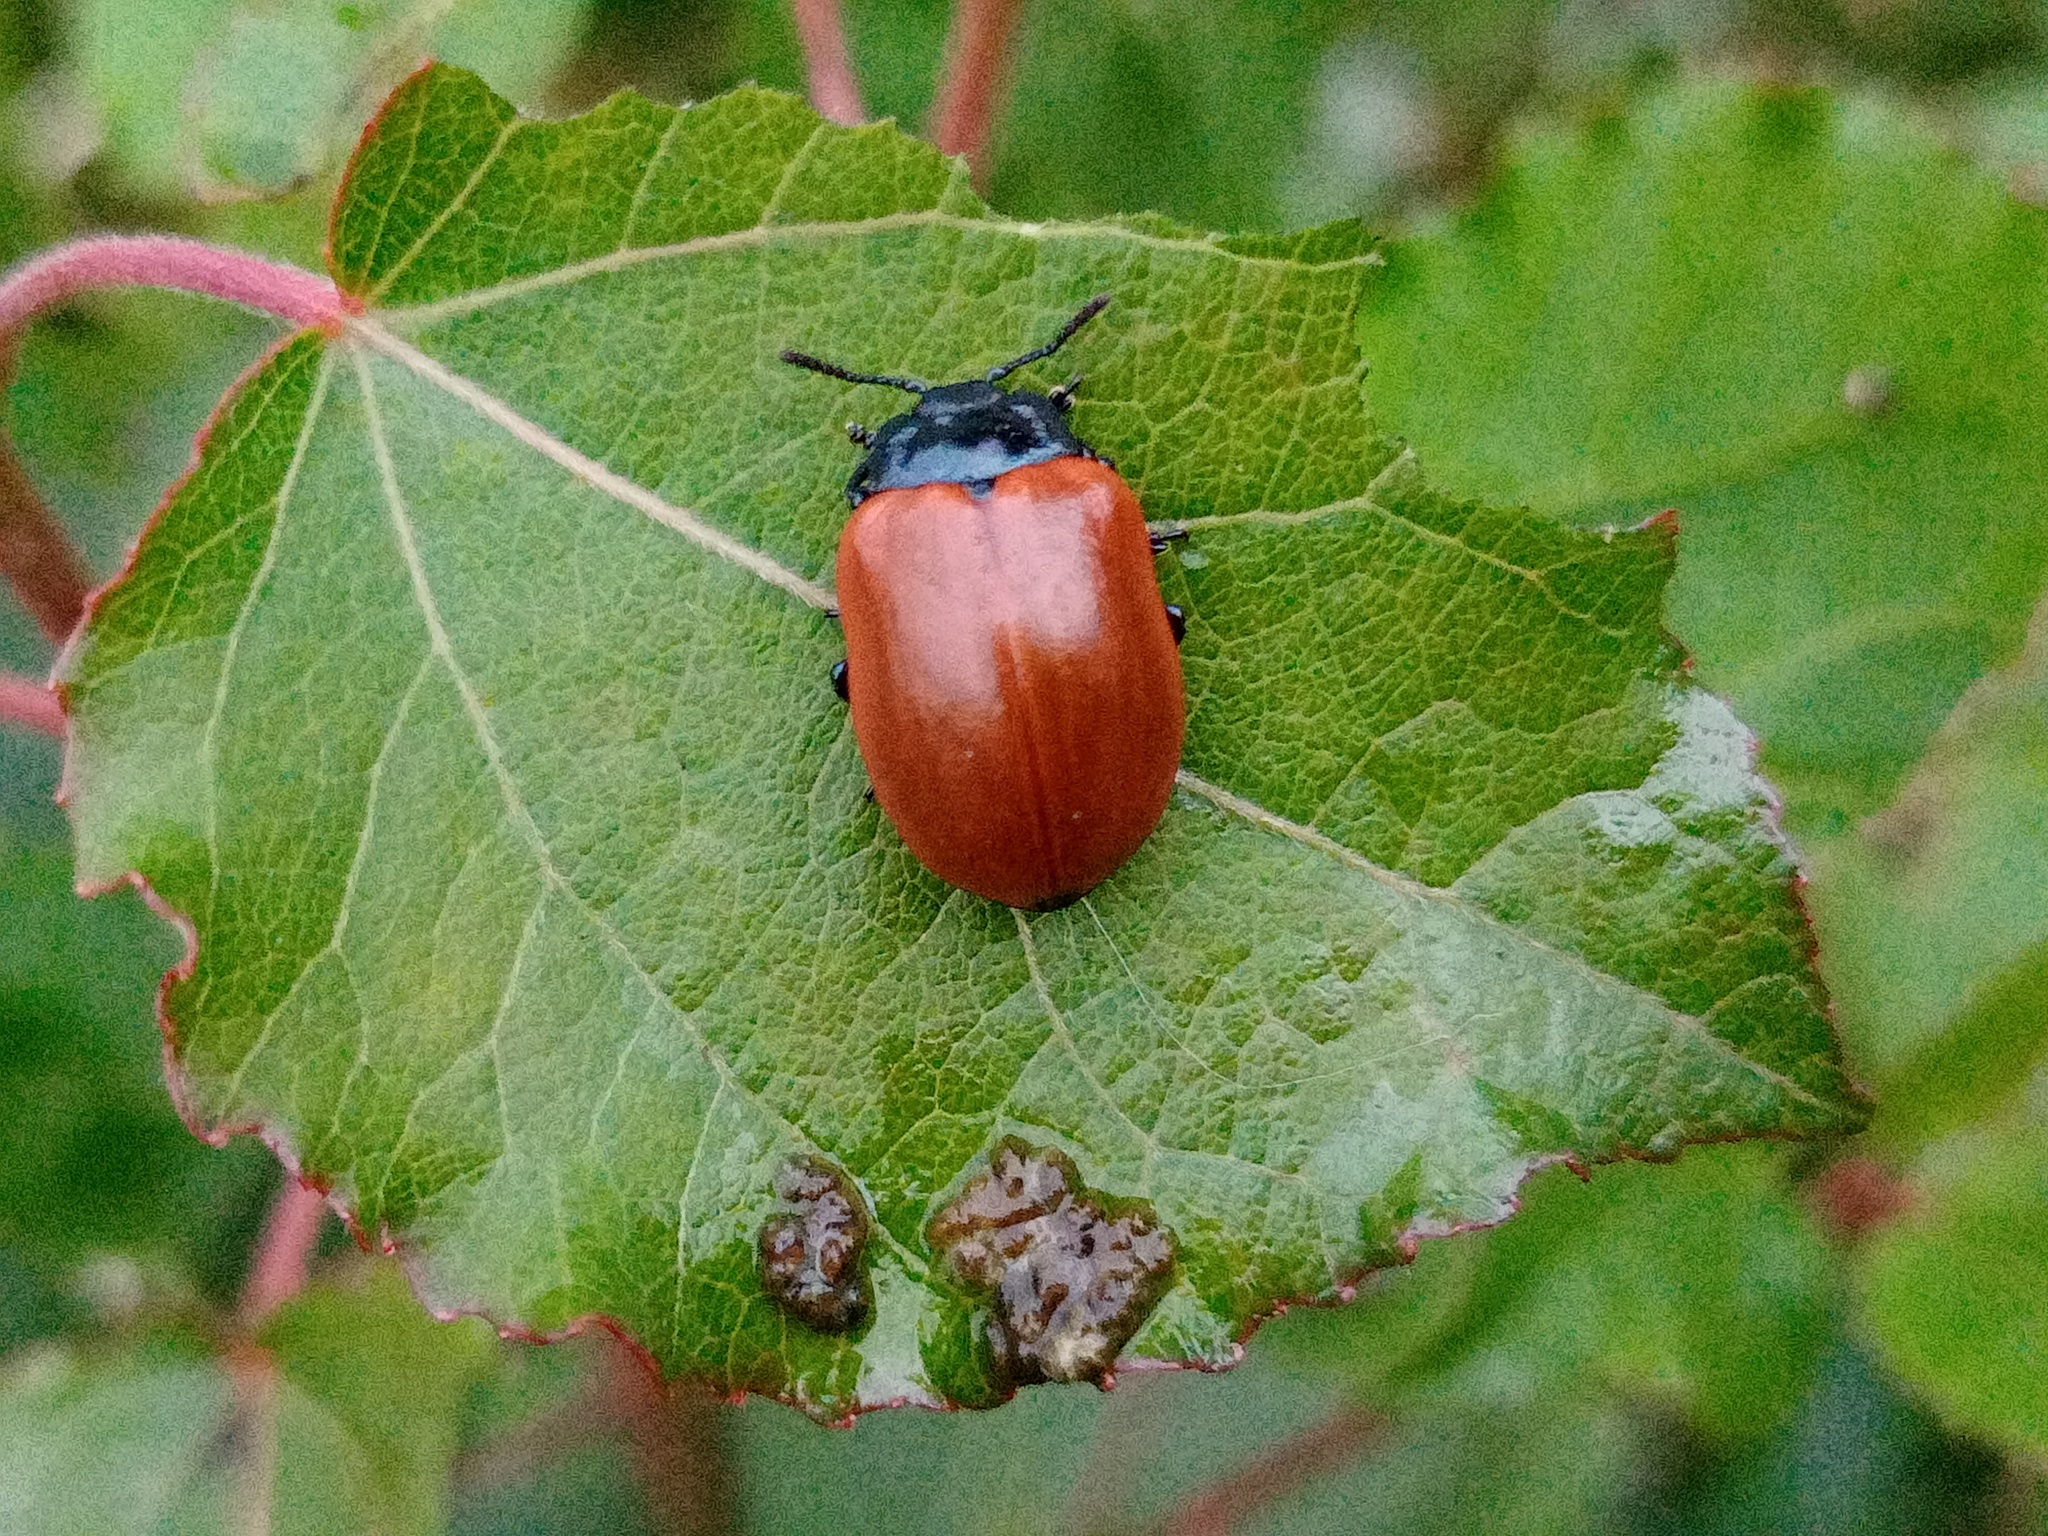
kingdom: Animalia
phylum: Arthropoda
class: Insecta
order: Coleoptera
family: Chrysomelidae
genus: Chrysomela
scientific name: Chrysomela populi
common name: Red poplar leaf beetle
